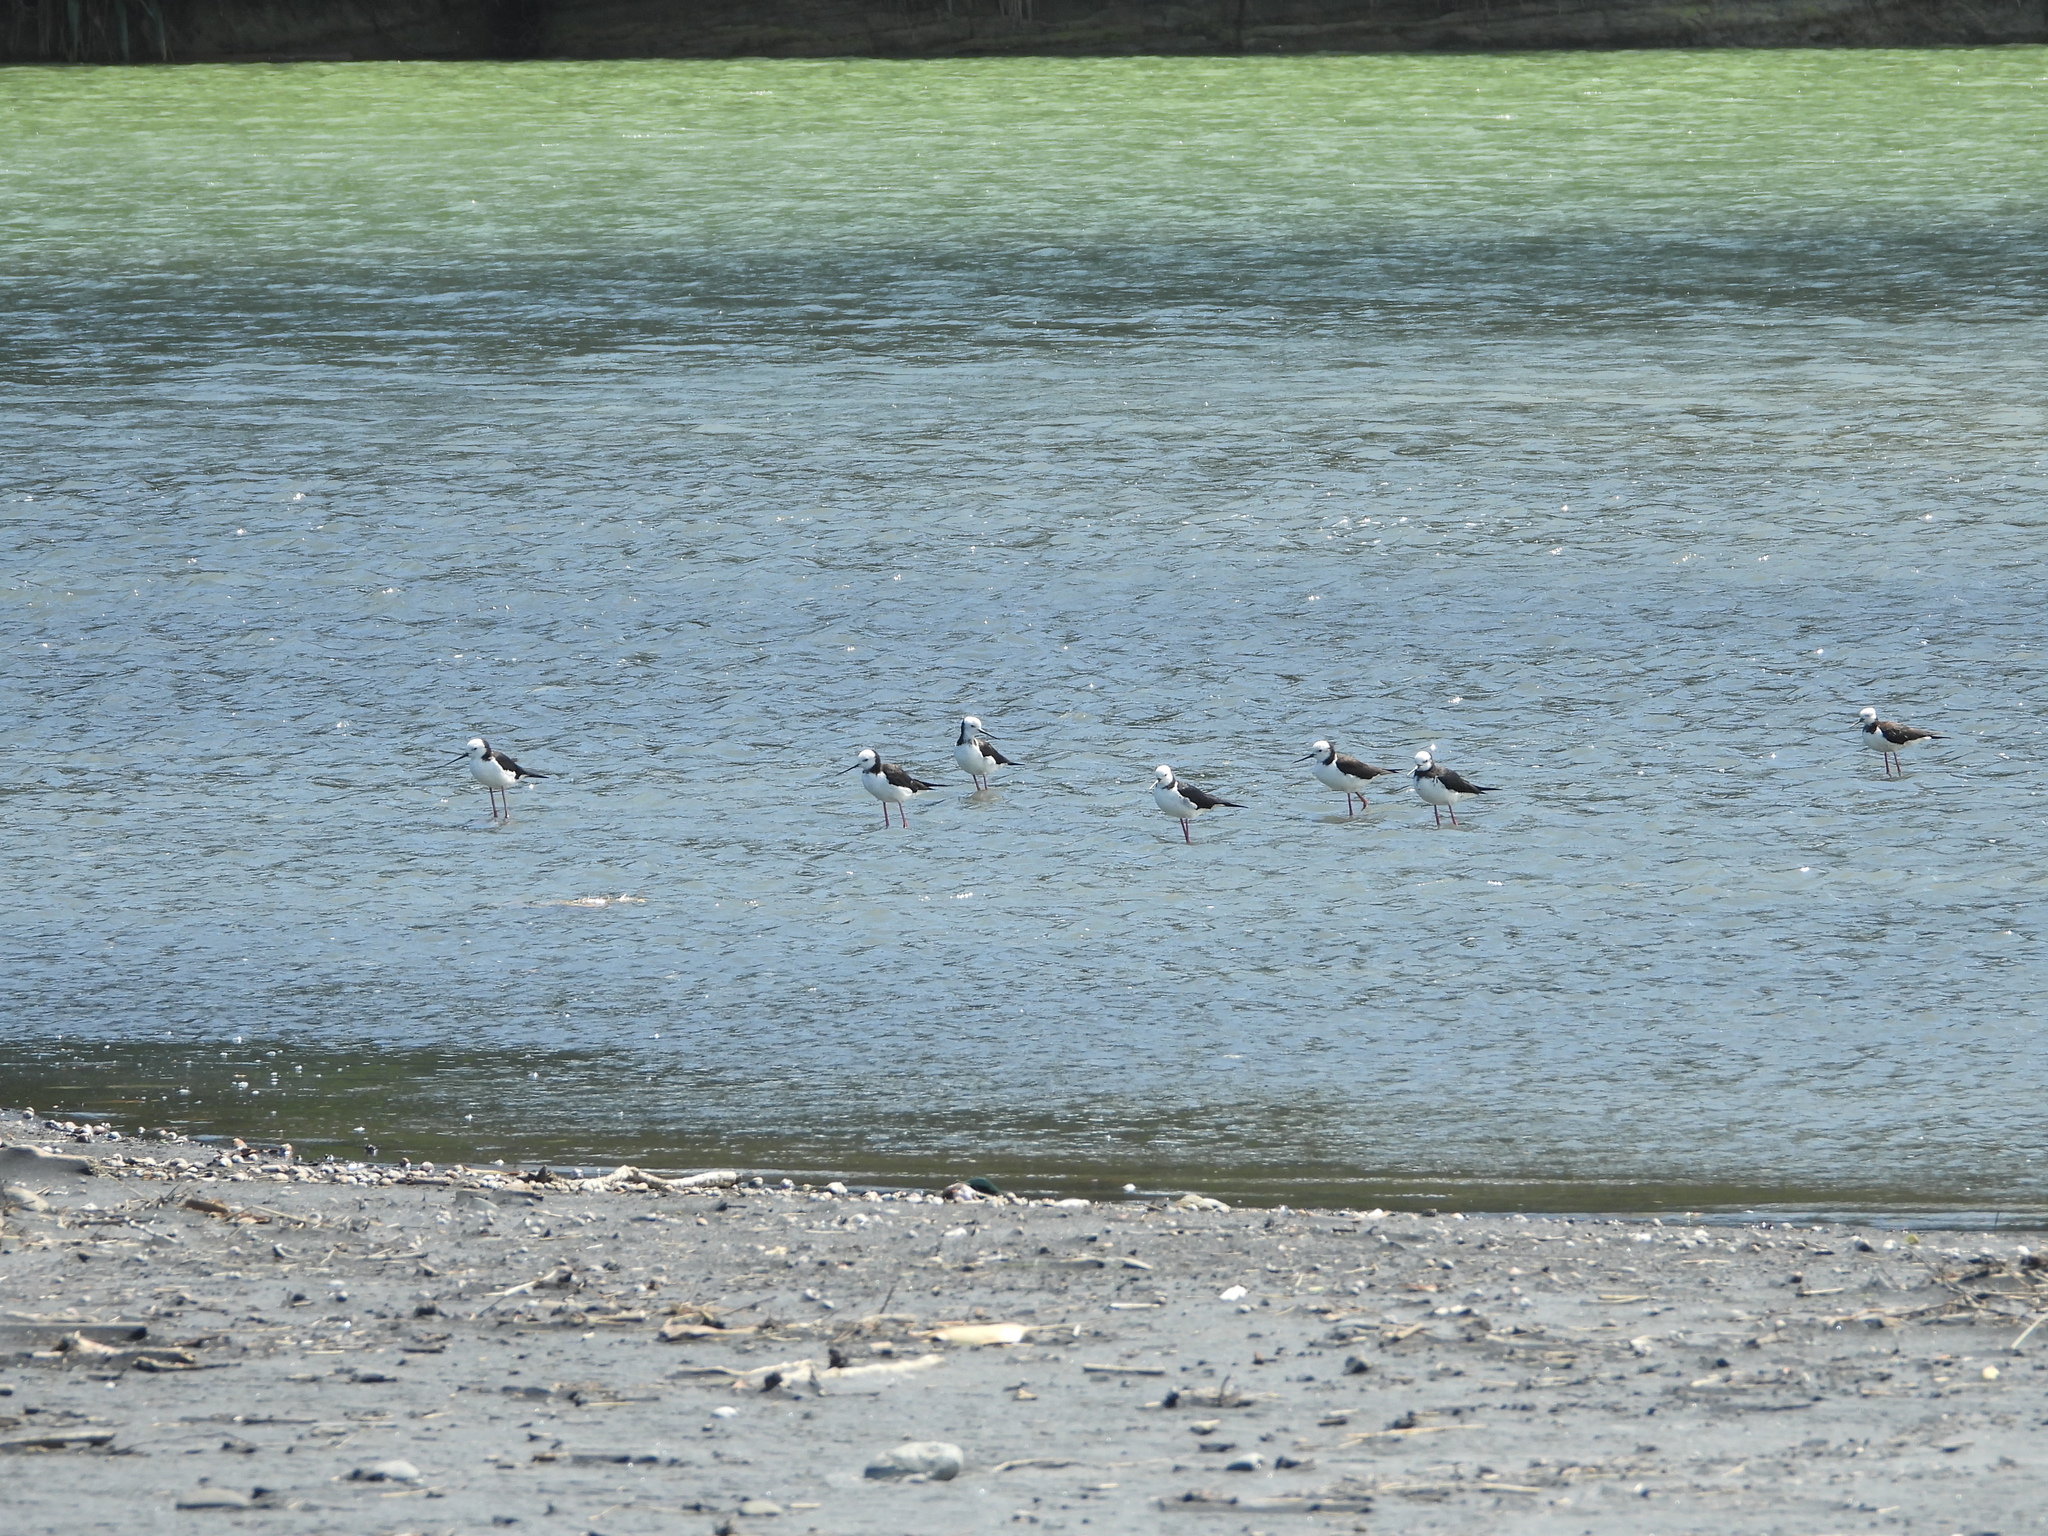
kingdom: Animalia
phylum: Chordata
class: Aves
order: Charadriiformes
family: Recurvirostridae
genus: Himantopus
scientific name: Himantopus leucocephalus
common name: White-headed stilt
